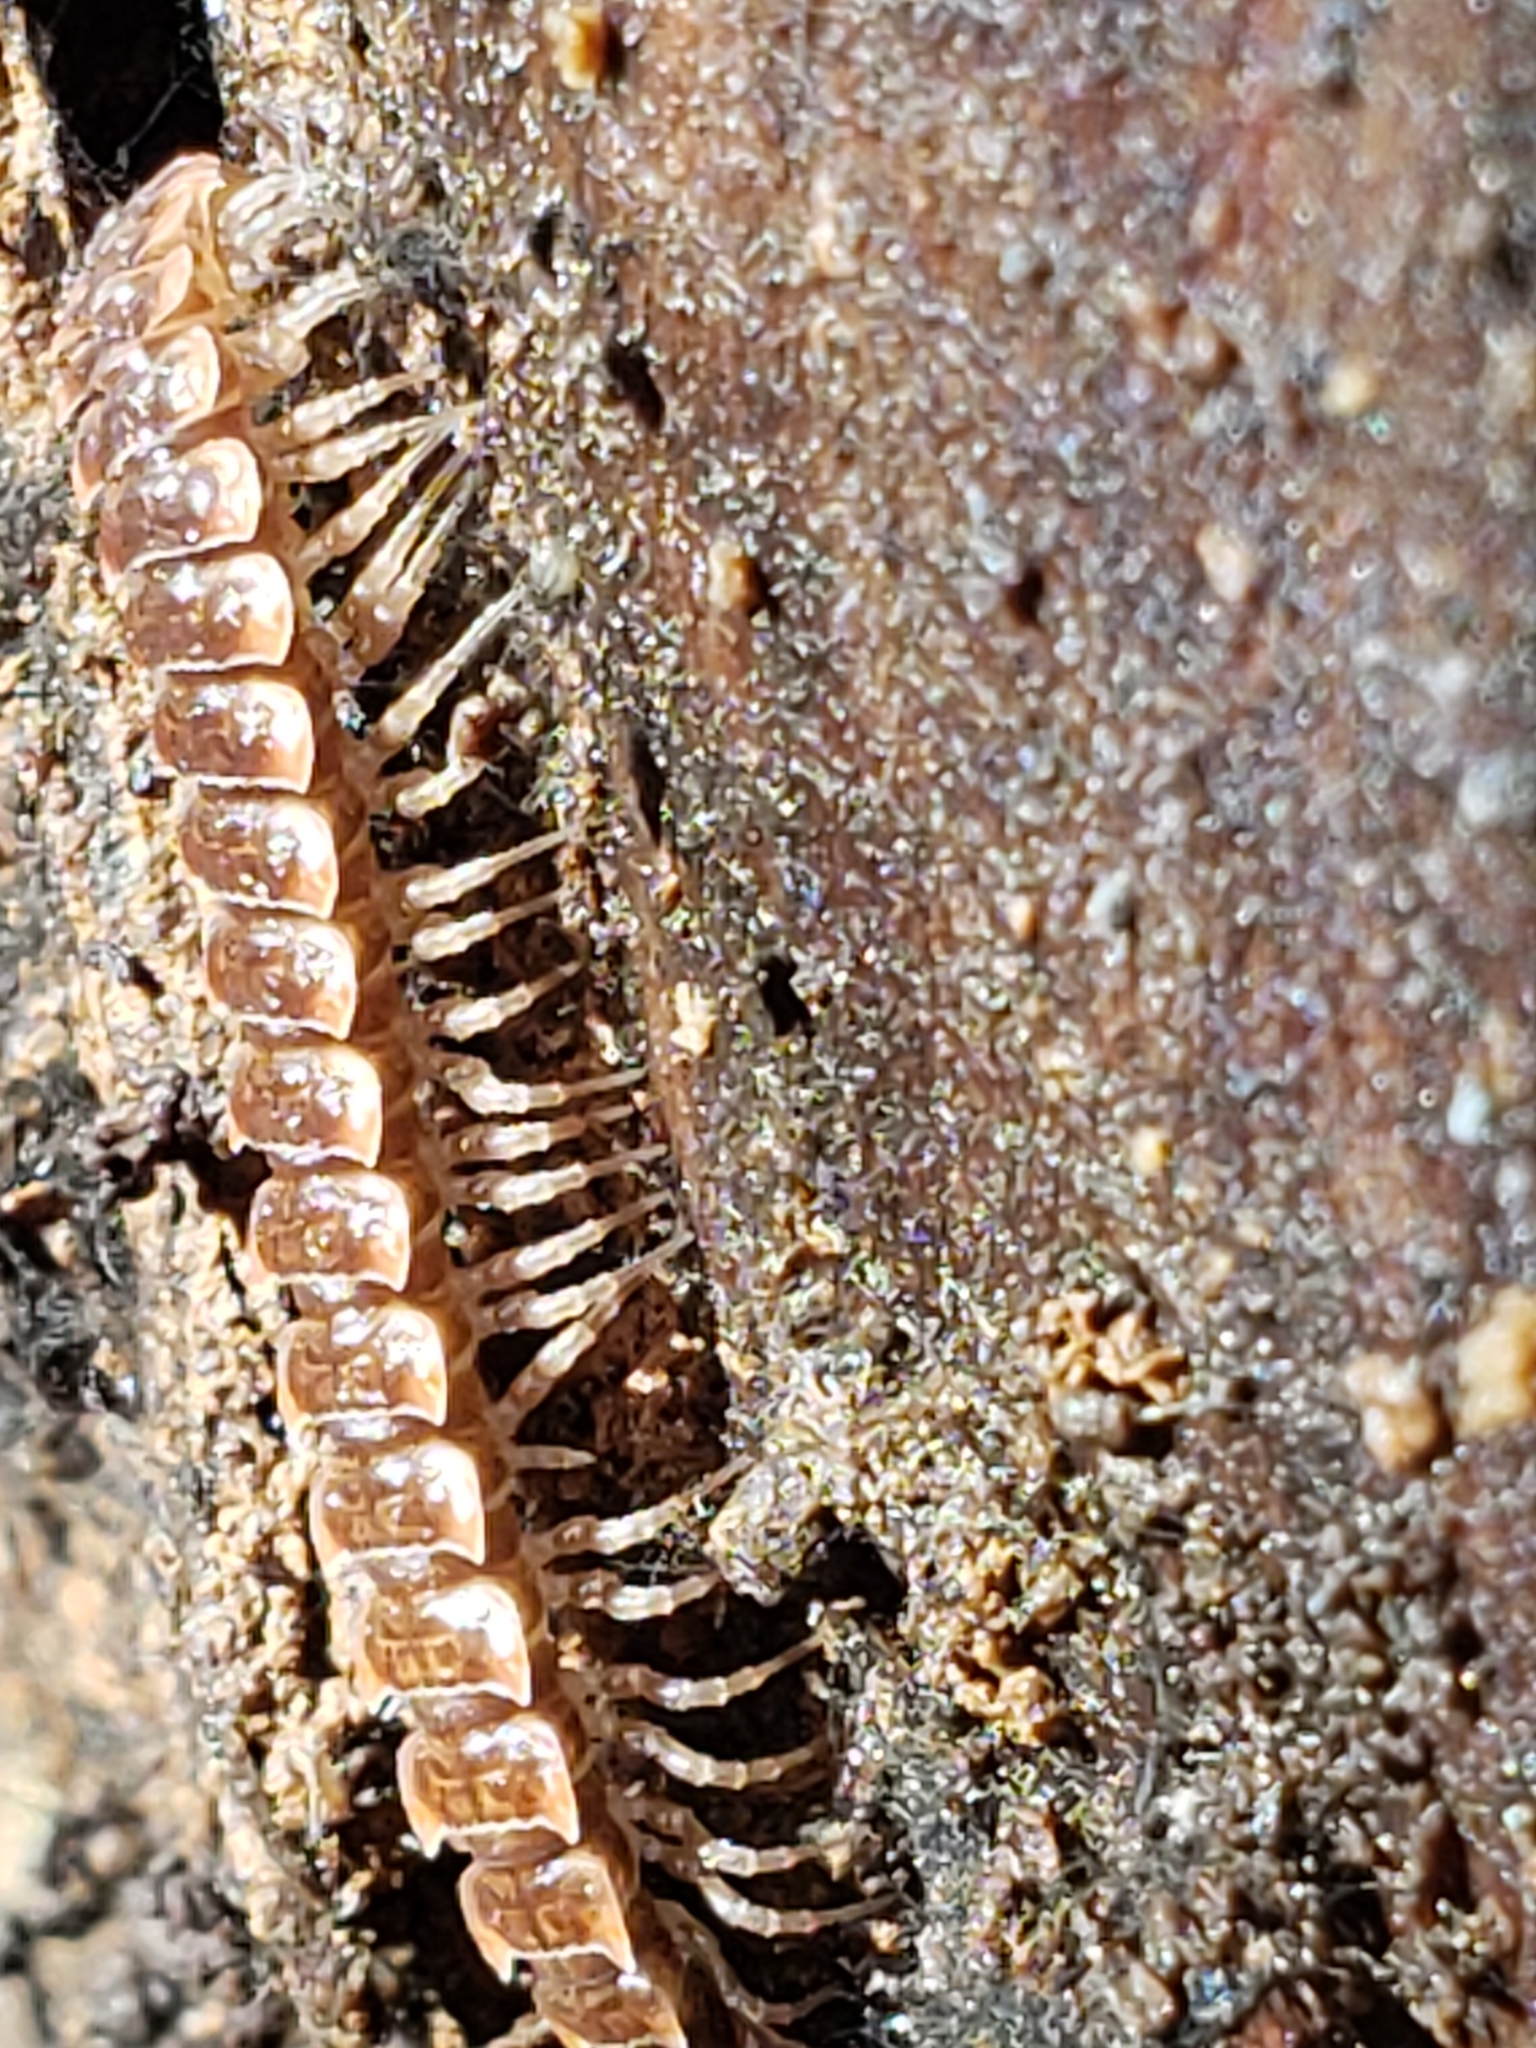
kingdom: Animalia
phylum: Arthropoda
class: Diplopoda
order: Polydesmida
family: Polydesmidae
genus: Pseudopolydesmus
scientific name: Pseudopolydesmus serratus
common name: Common pink flat-back millipede
